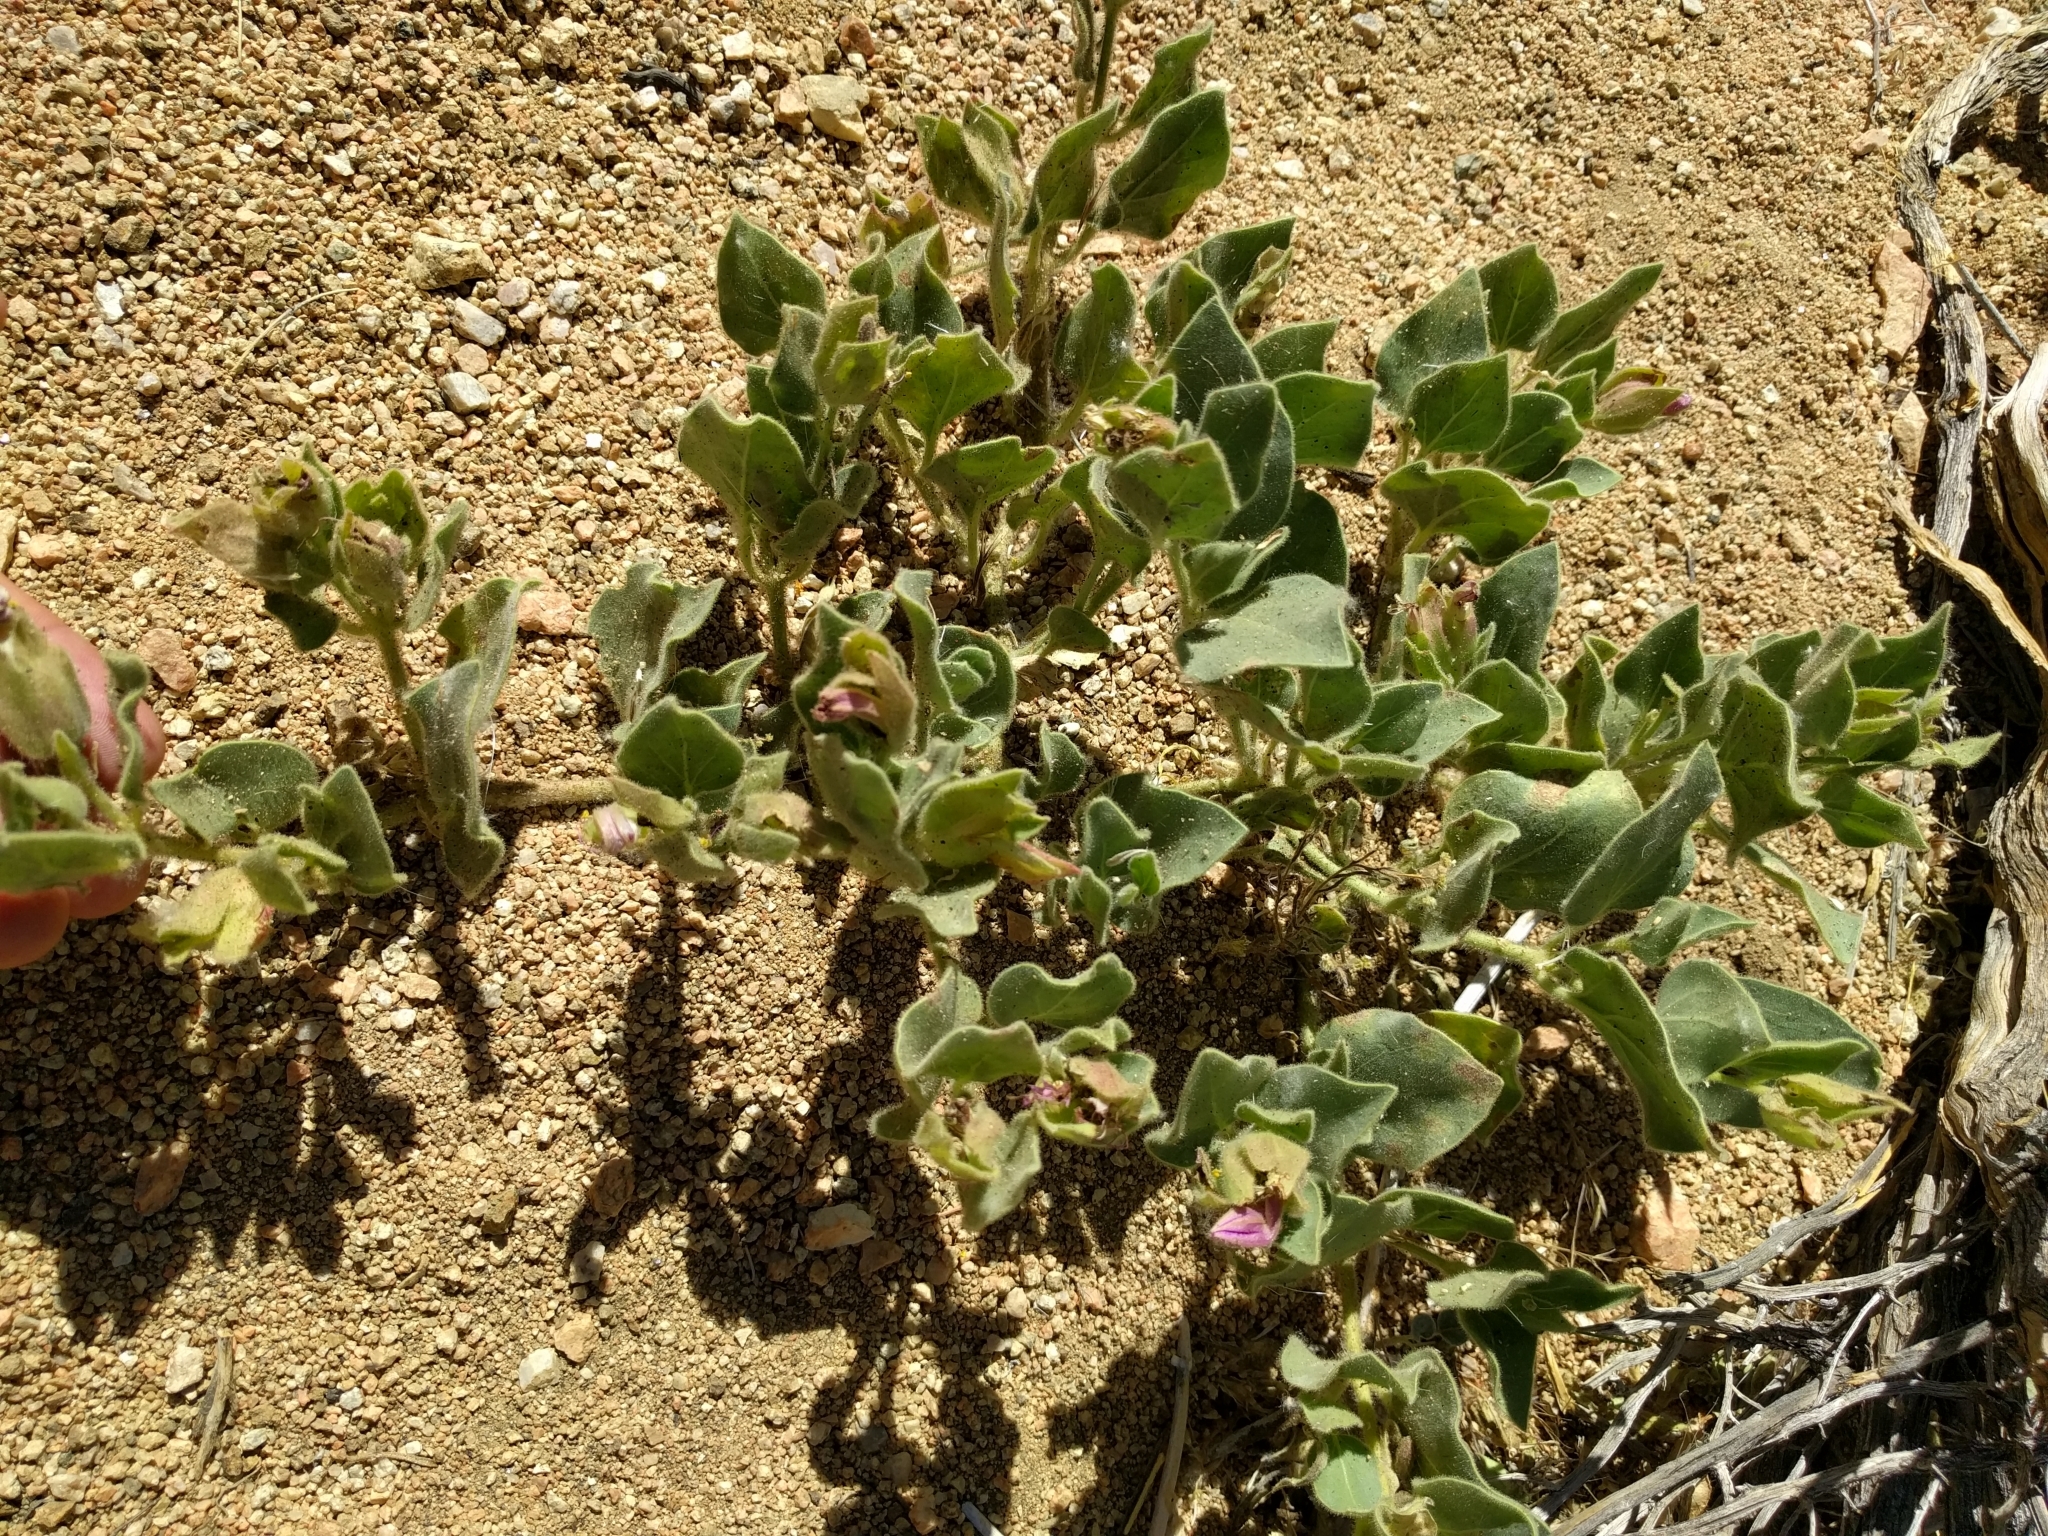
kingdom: Plantae
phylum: Tracheophyta
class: Magnoliopsida
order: Caryophyllales
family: Nyctaginaceae
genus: Mirabilis
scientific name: Mirabilis multiflora
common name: Froebel's four-o'clock
